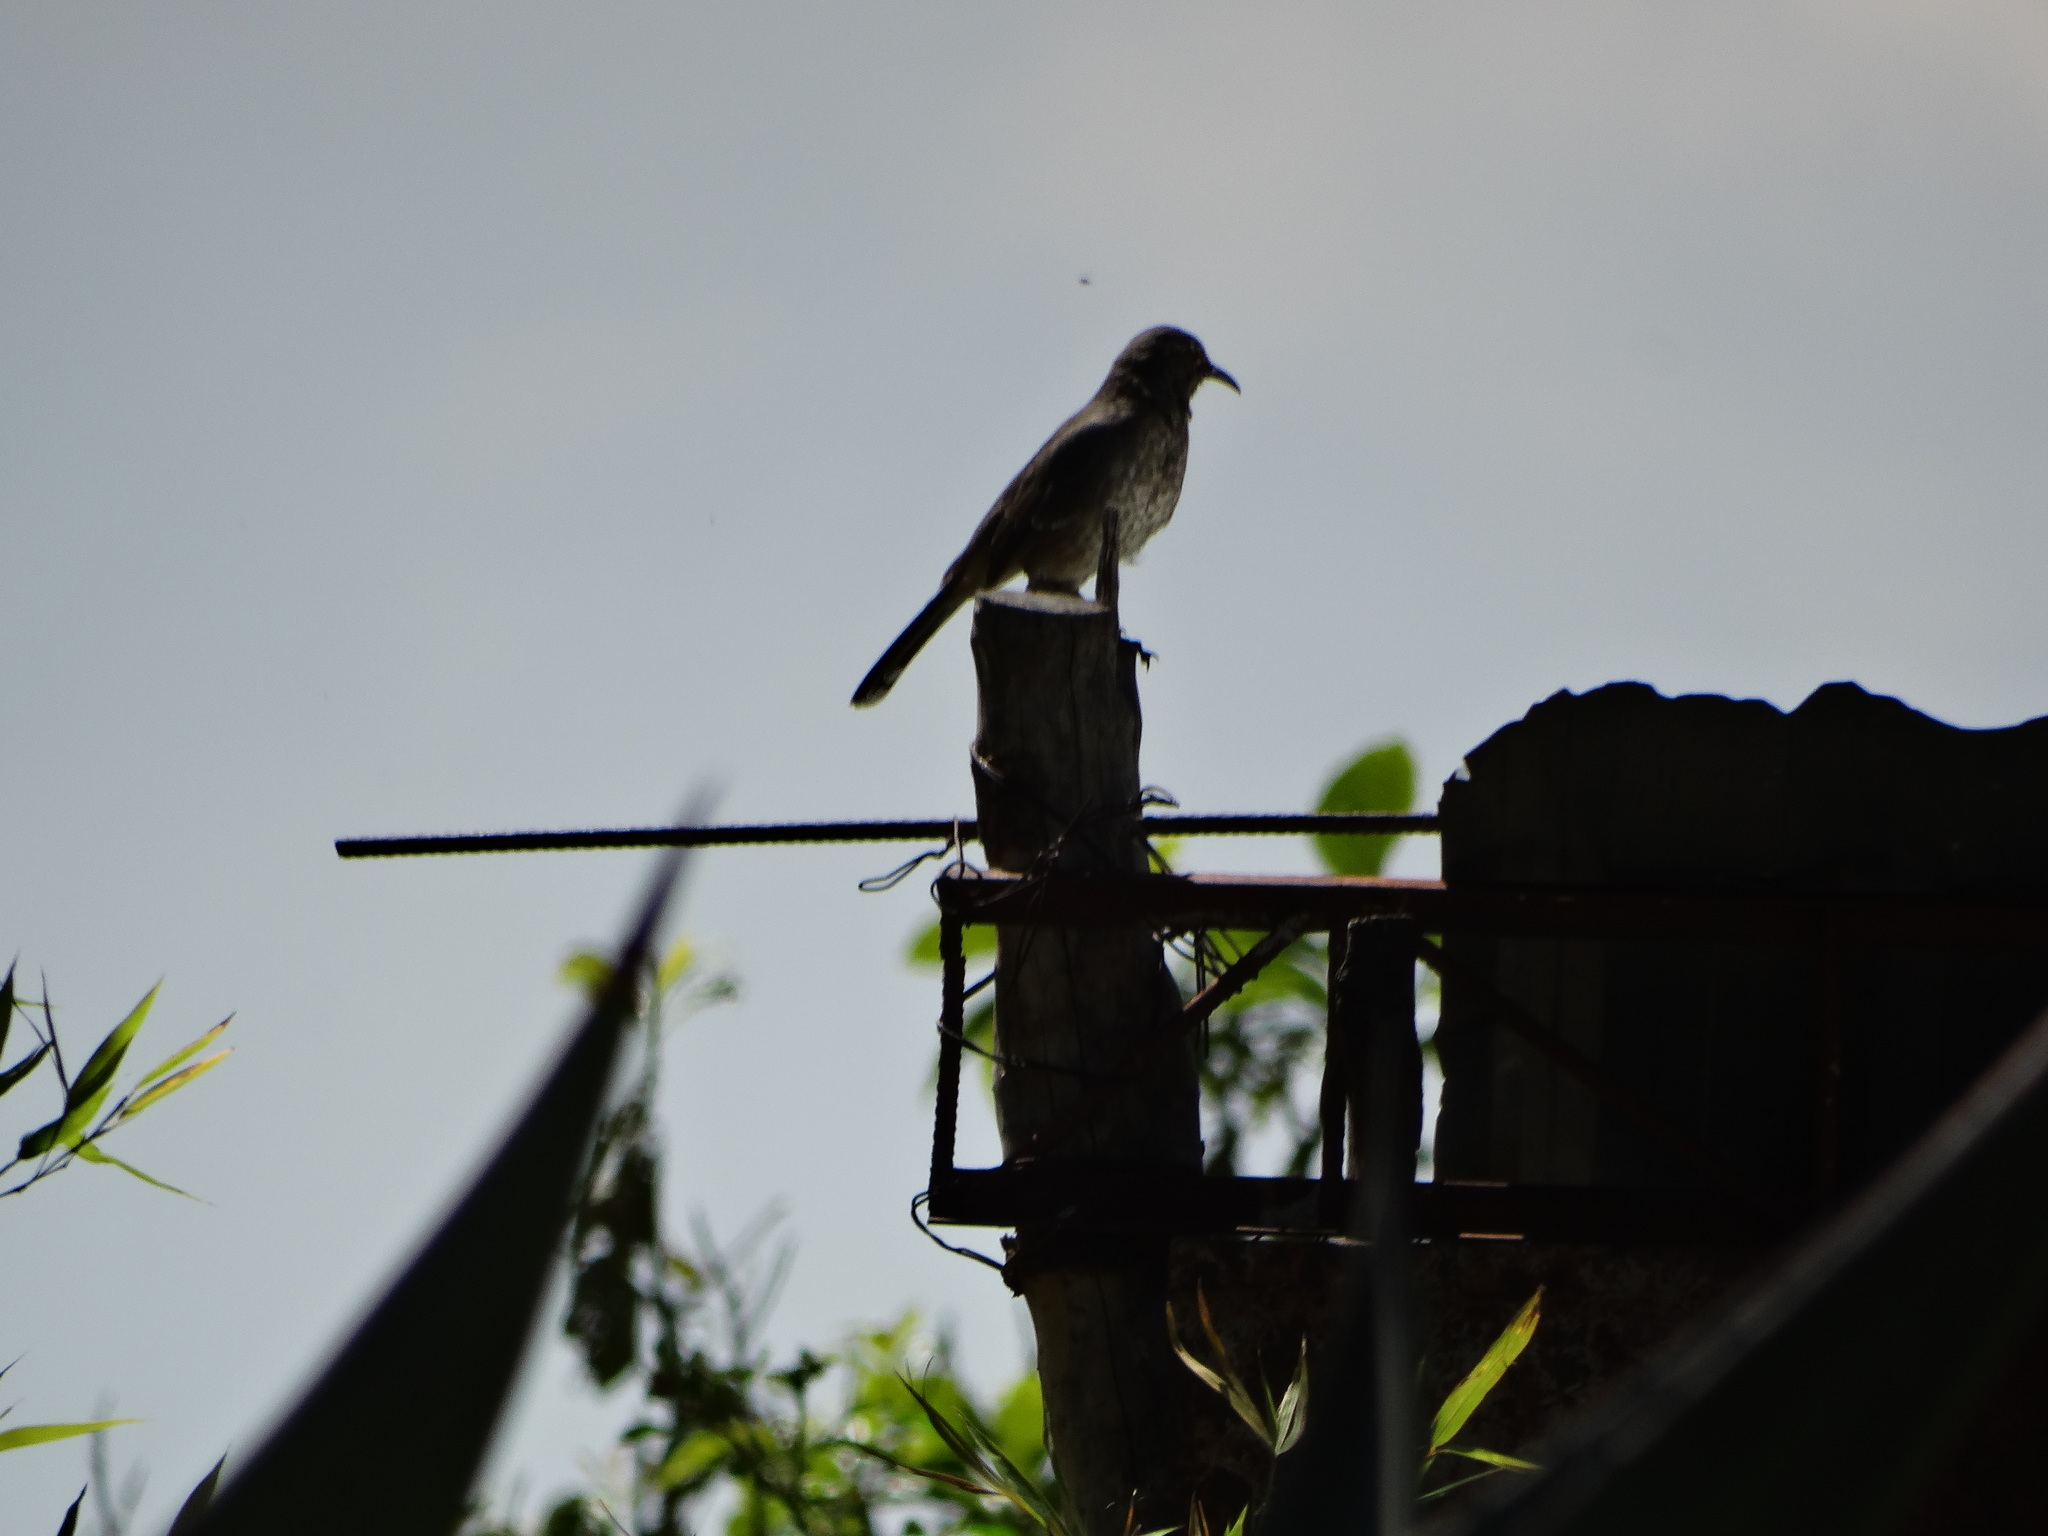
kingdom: Animalia
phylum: Chordata
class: Aves
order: Passeriformes
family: Mimidae
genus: Toxostoma
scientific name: Toxostoma curvirostre
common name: Curve-billed thrasher
